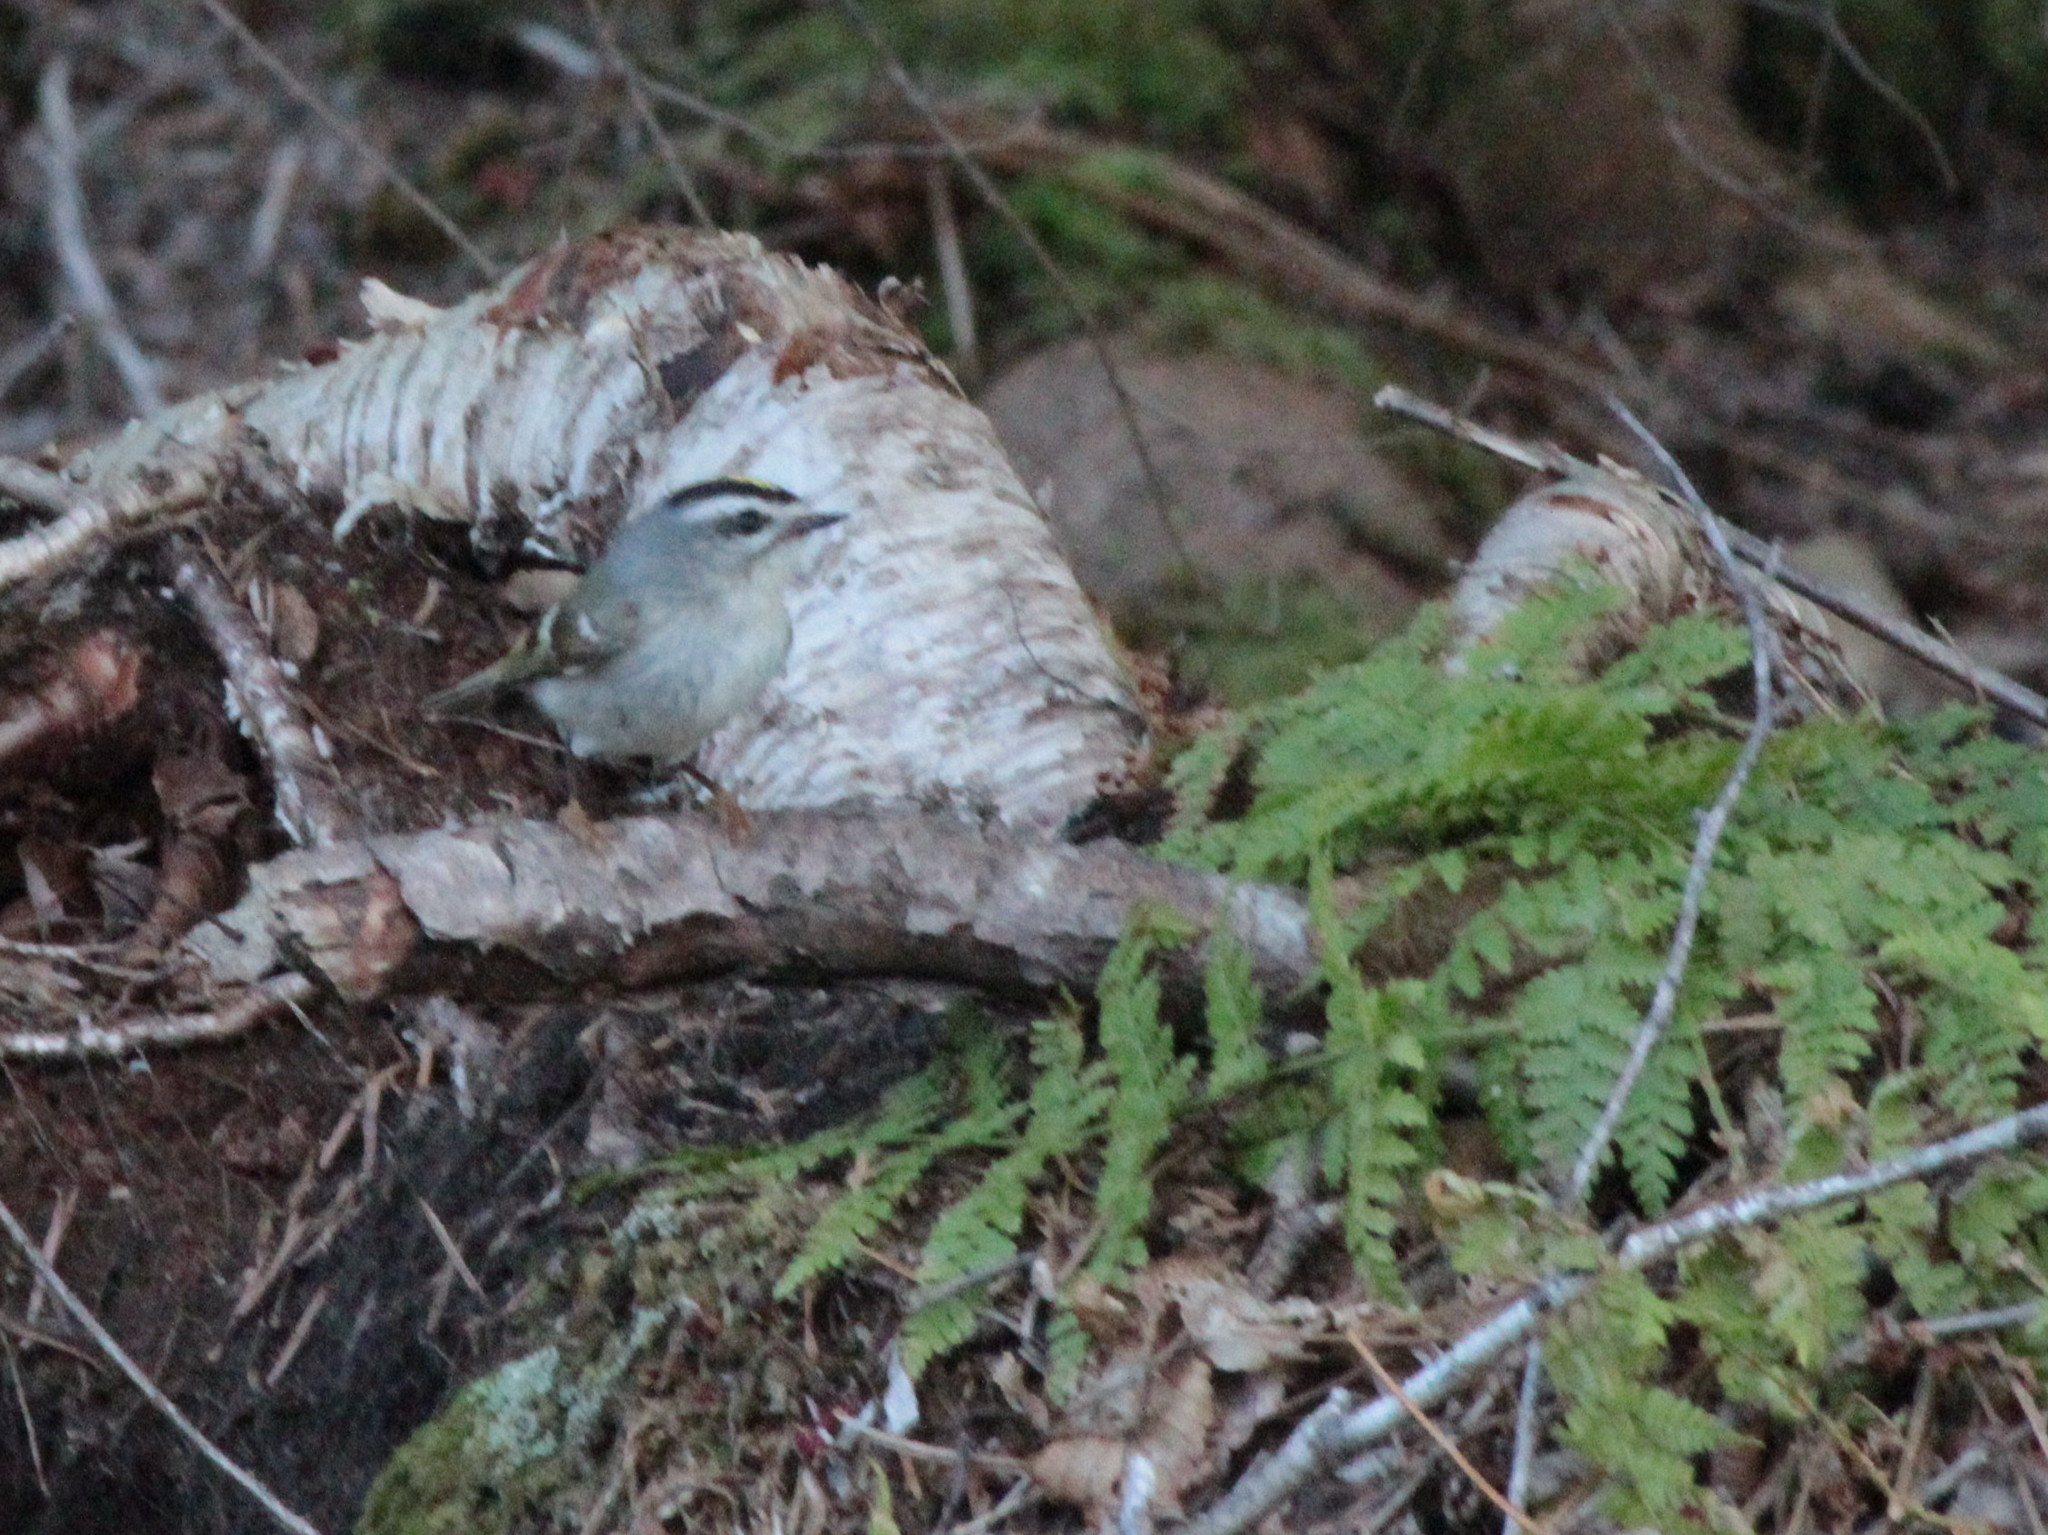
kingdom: Animalia
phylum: Chordata
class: Aves
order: Passeriformes
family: Regulidae
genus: Regulus
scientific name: Regulus satrapa
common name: Golden-crowned kinglet
